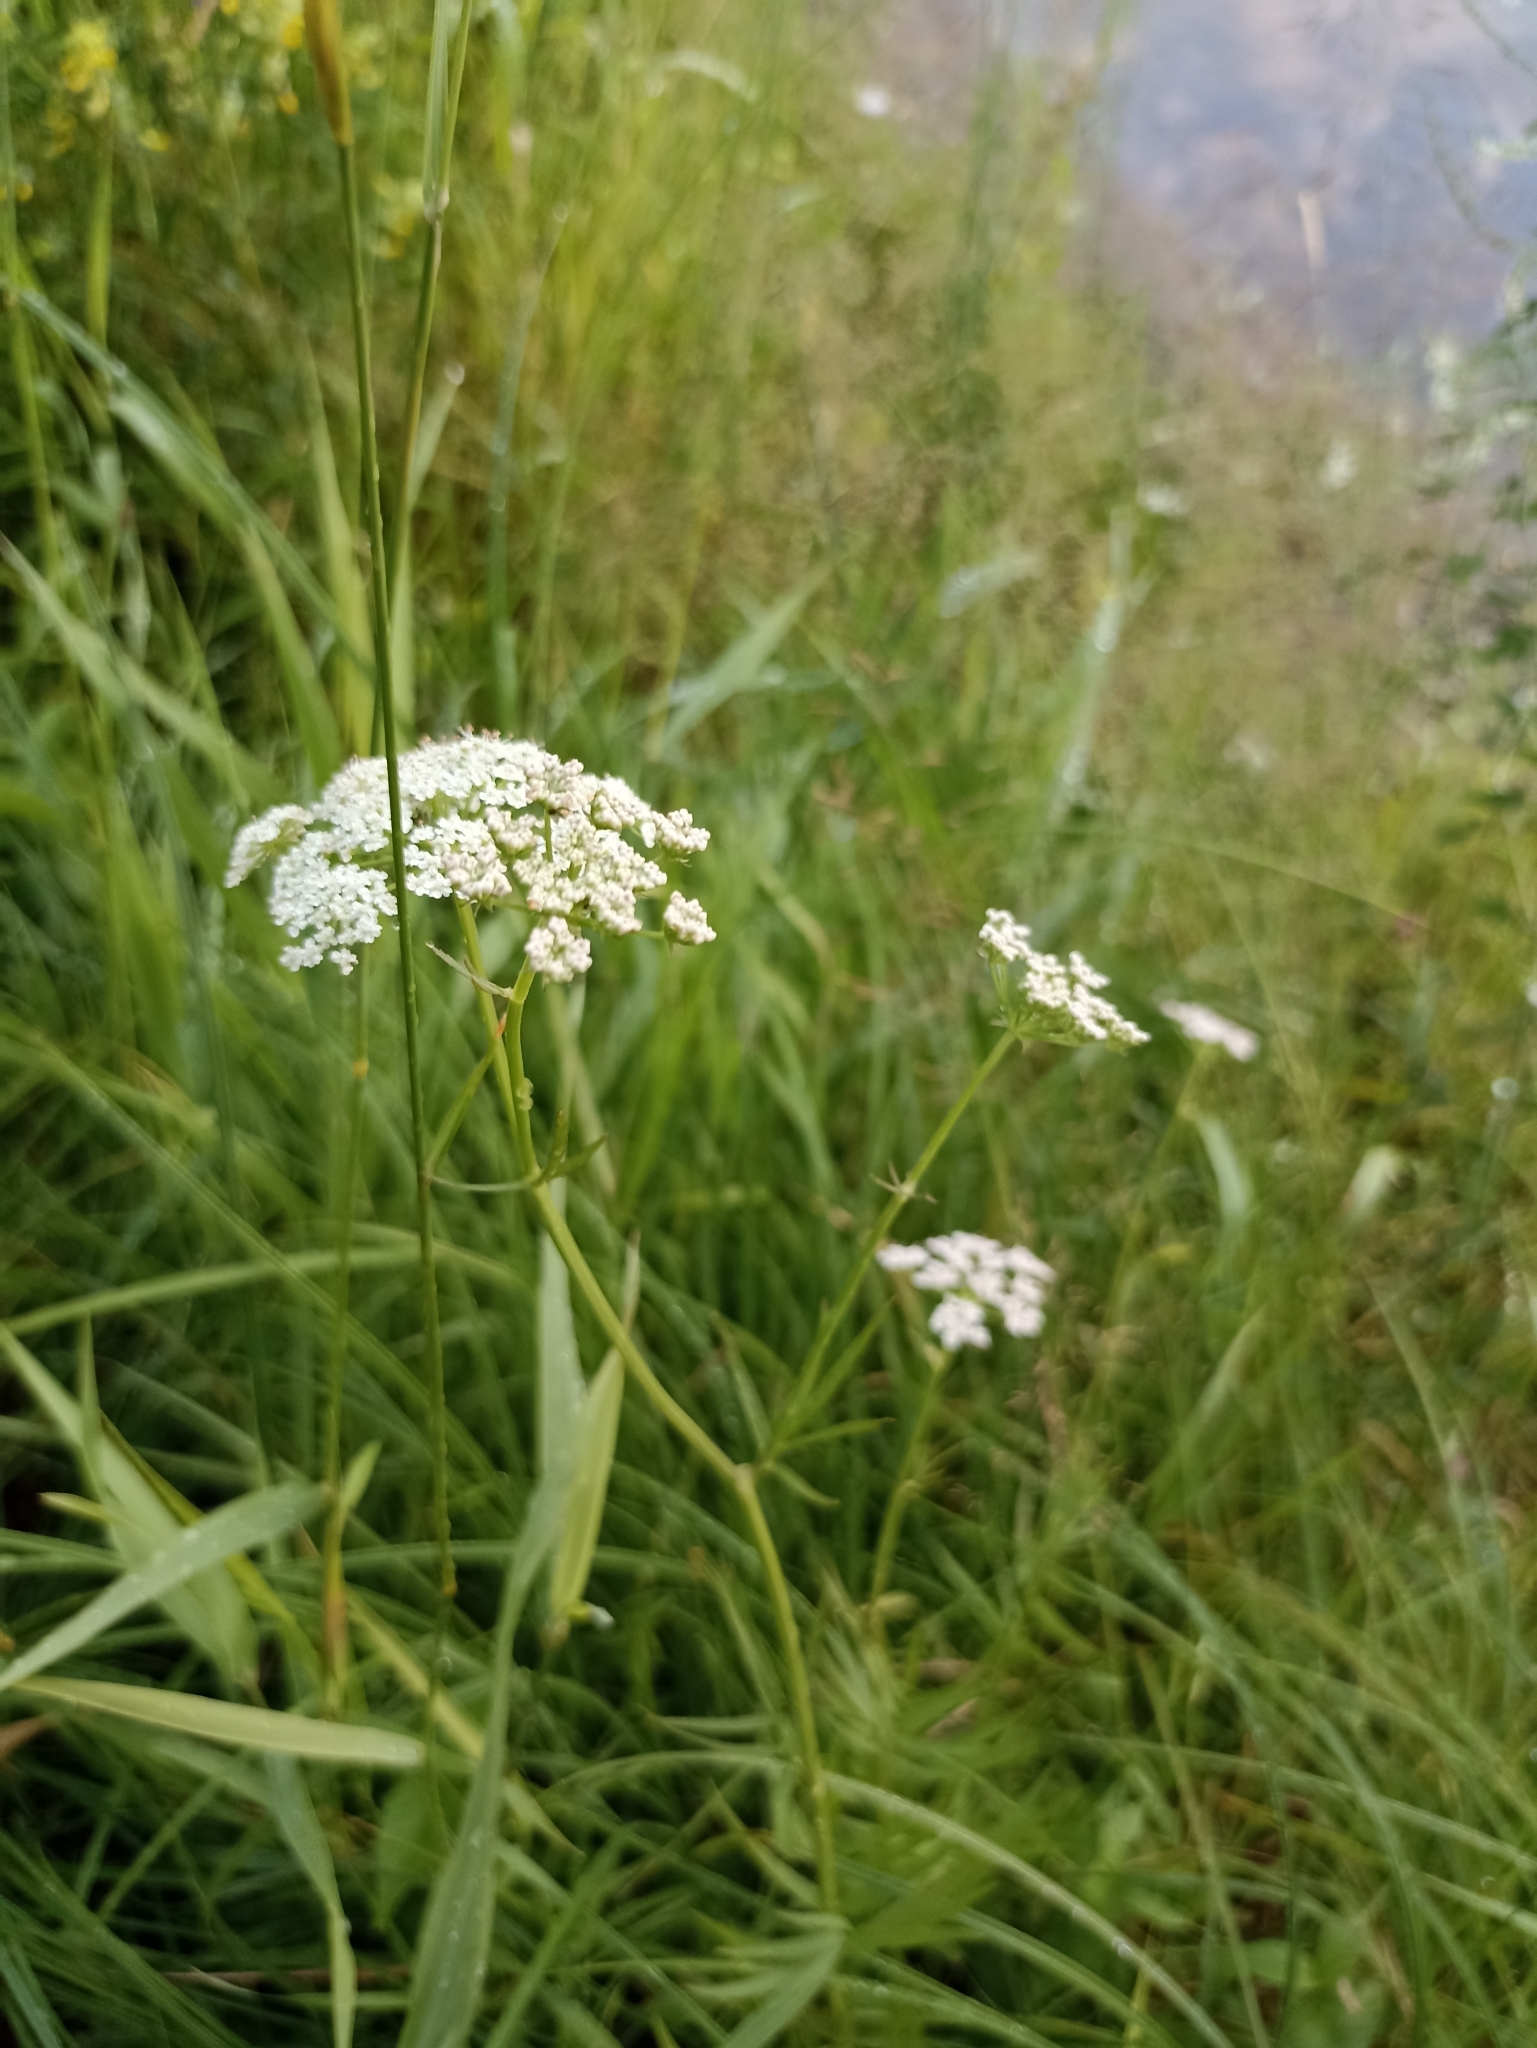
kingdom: Plantae
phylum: Tracheophyta
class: Magnoliopsida
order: Apiales
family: Apiaceae
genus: Sium
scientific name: Sium suave
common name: Hemlock water-parsnip
